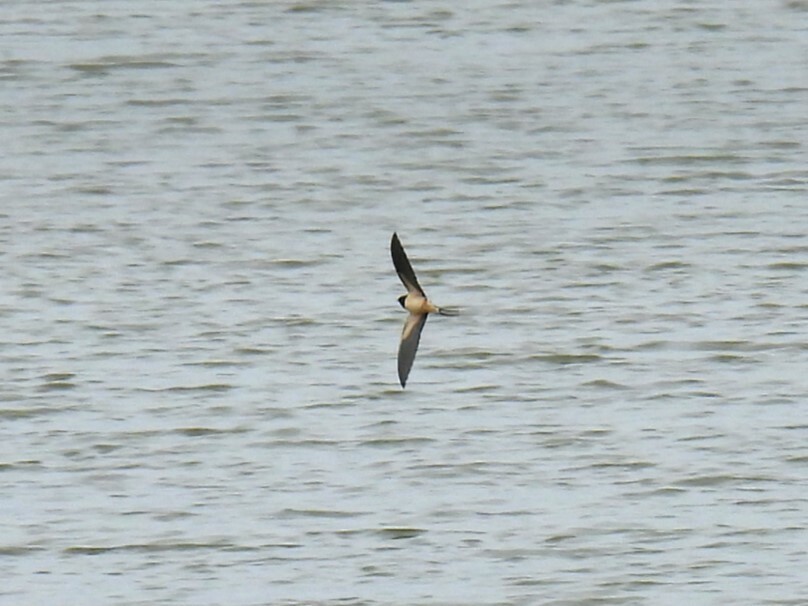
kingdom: Animalia
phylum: Chordata
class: Aves
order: Passeriformes
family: Hirundinidae
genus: Hirundo
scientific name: Hirundo rustica
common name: Barn swallow
